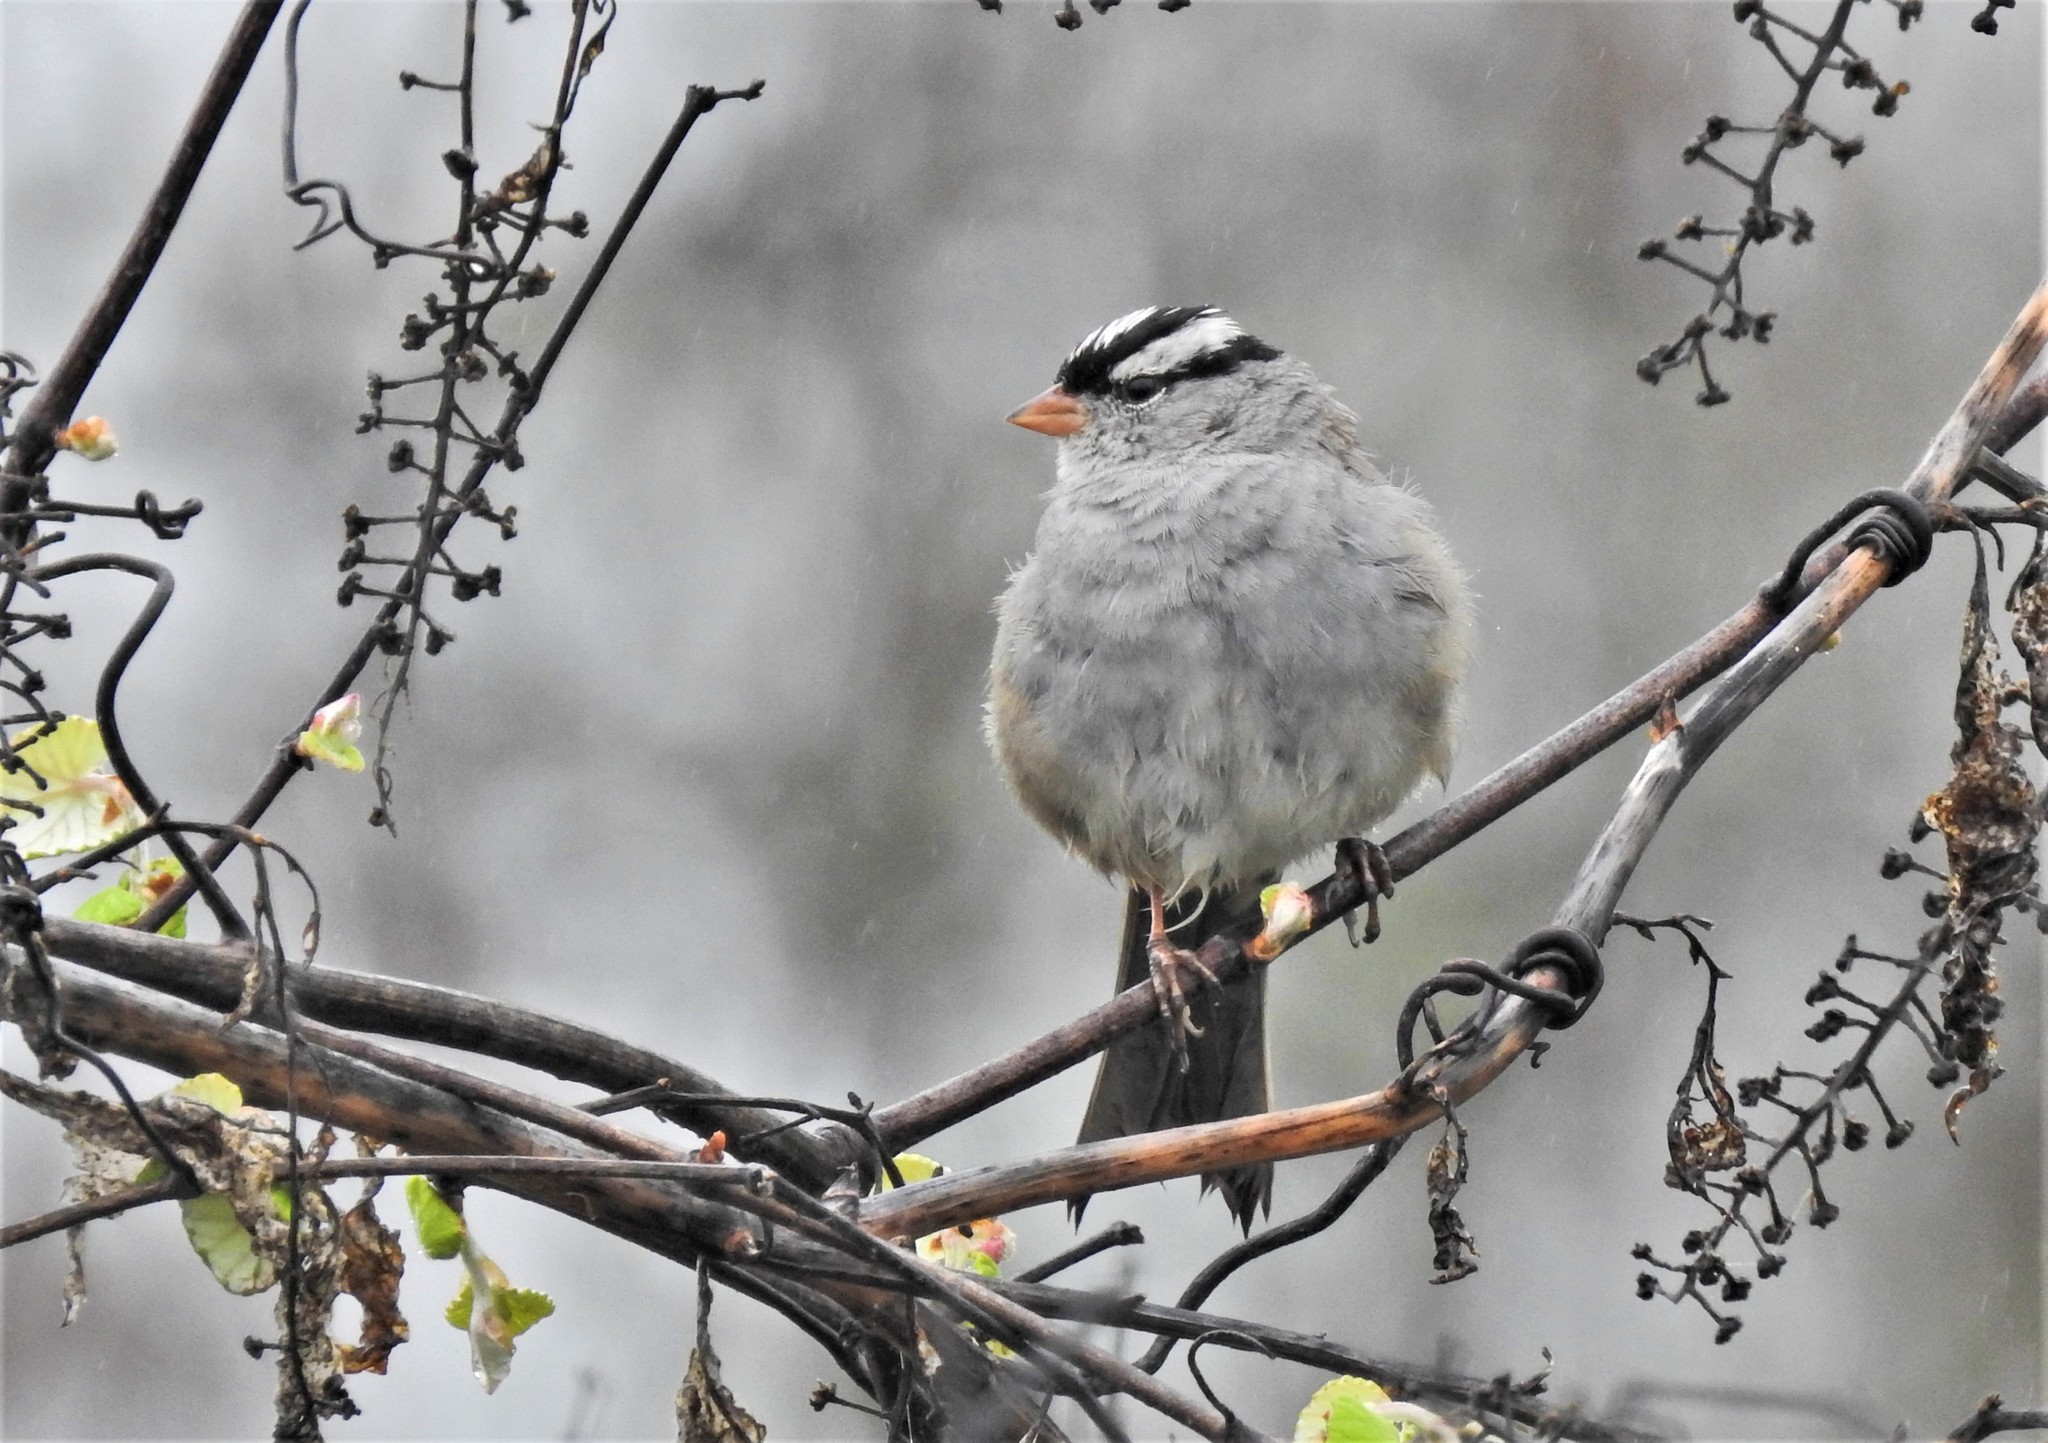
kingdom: Animalia
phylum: Chordata
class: Aves
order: Passeriformes
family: Passerellidae
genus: Zonotrichia
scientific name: Zonotrichia leucophrys
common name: White-crowned sparrow
